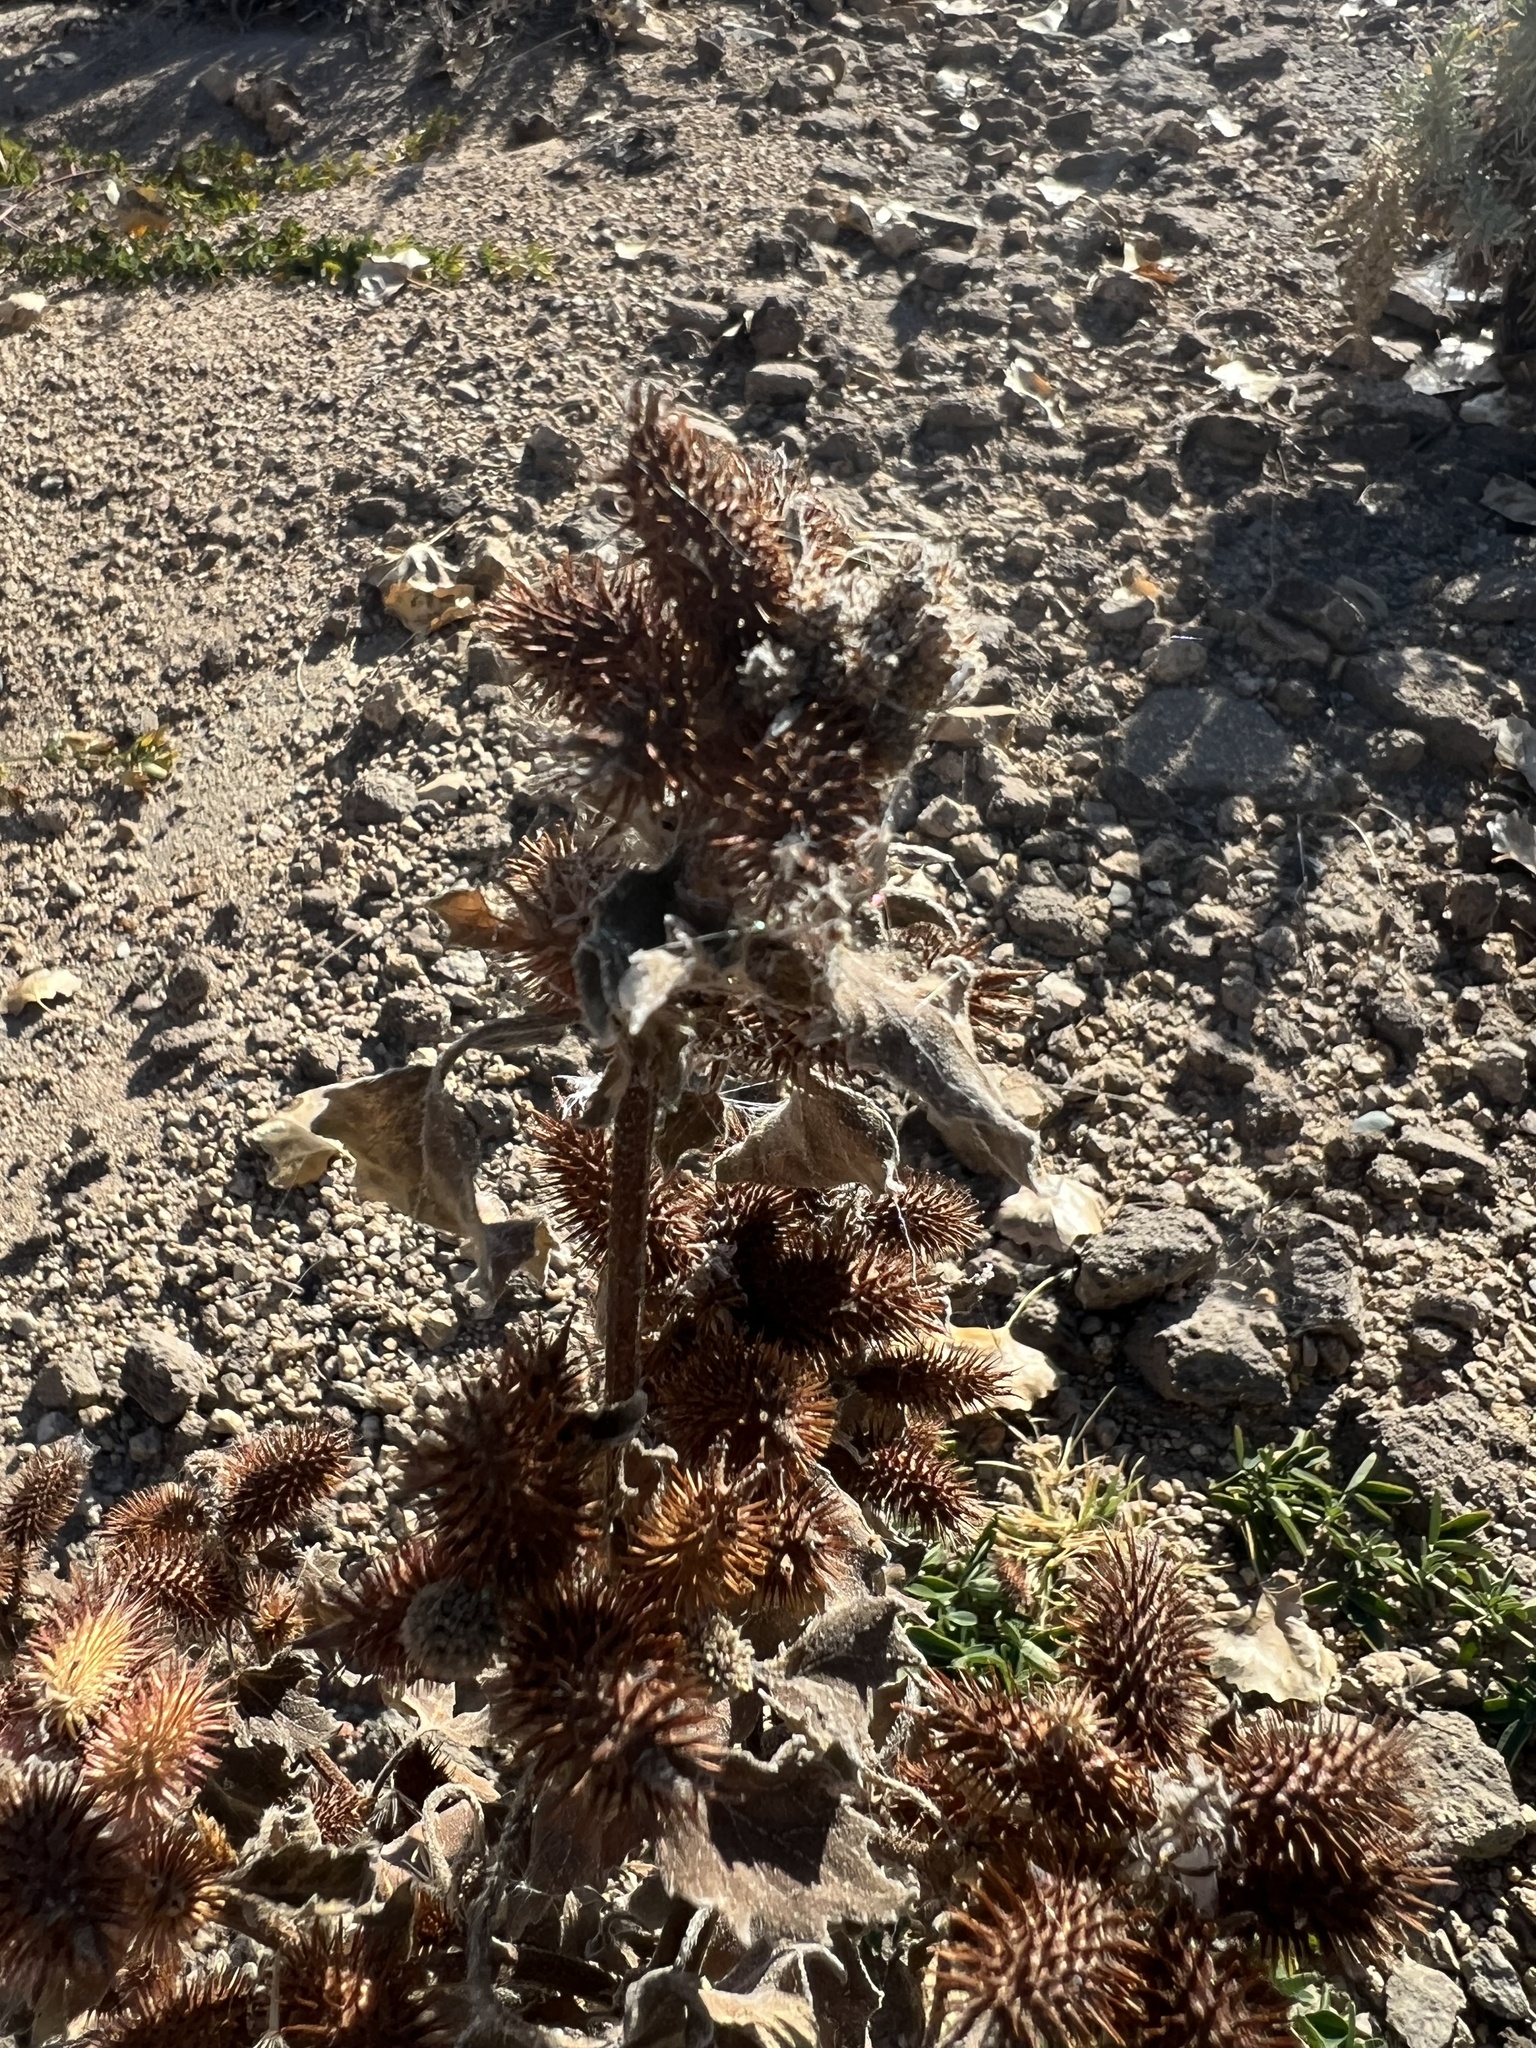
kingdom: Plantae
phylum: Tracheophyta
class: Magnoliopsida
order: Asterales
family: Asteraceae
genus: Xanthium
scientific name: Xanthium strumarium
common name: Rough cocklebur
